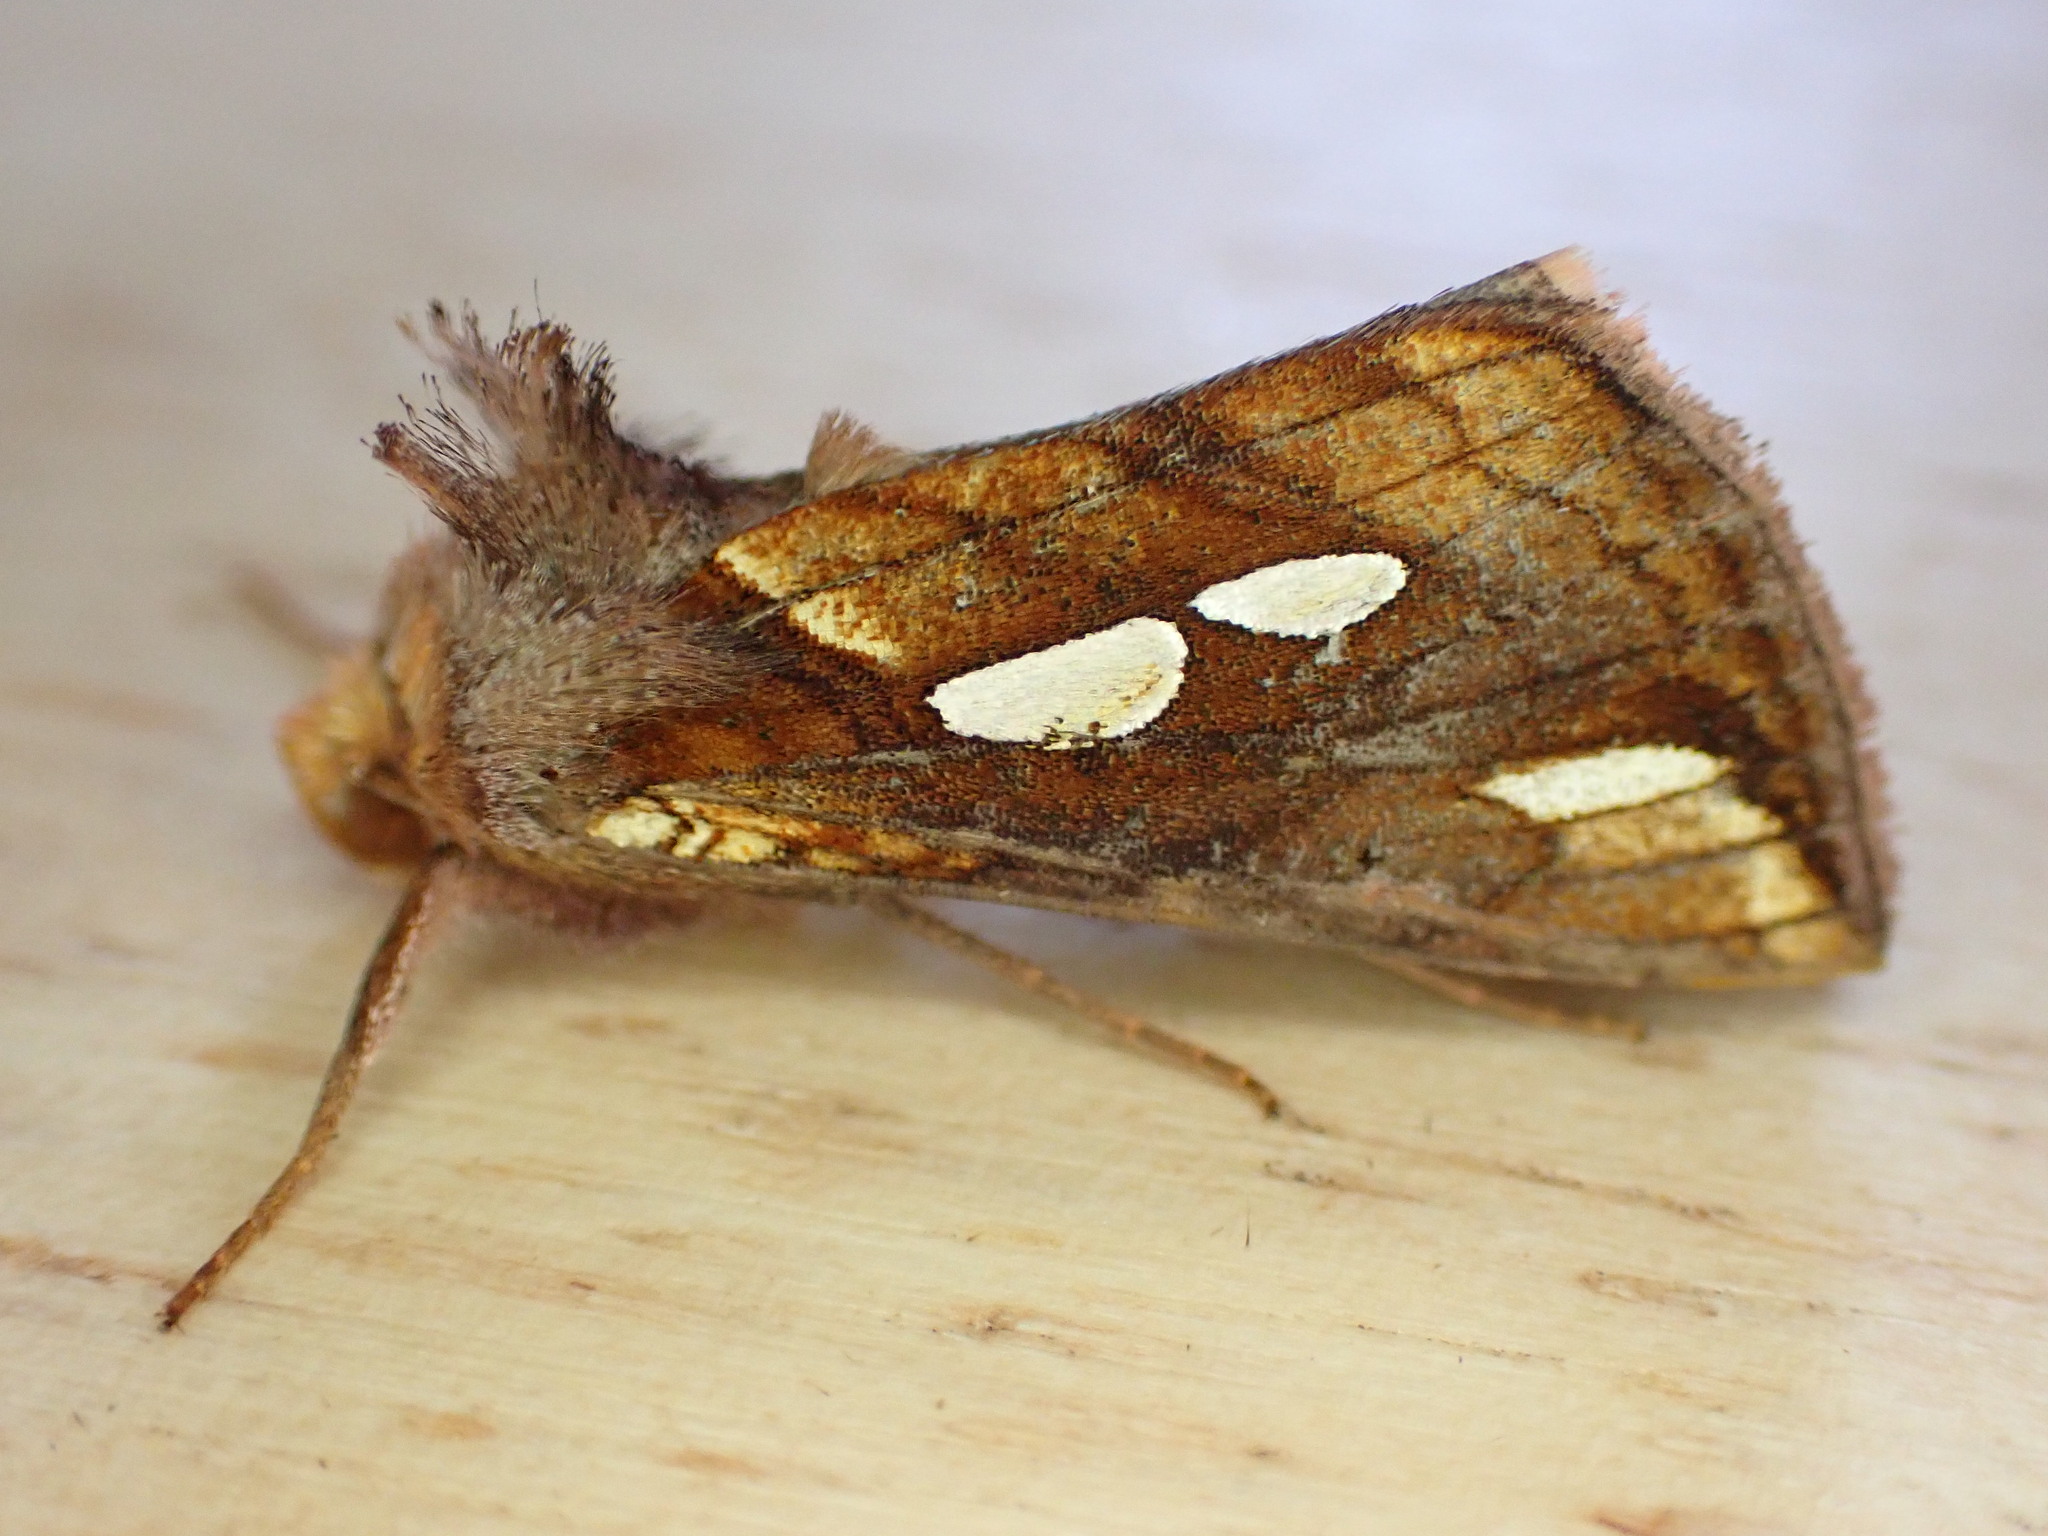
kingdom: Animalia
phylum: Arthropoda
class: Insecta
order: Lepidoptera
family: Noctuidae
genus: Plusia
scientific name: Plusia festucae
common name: Gold spot
